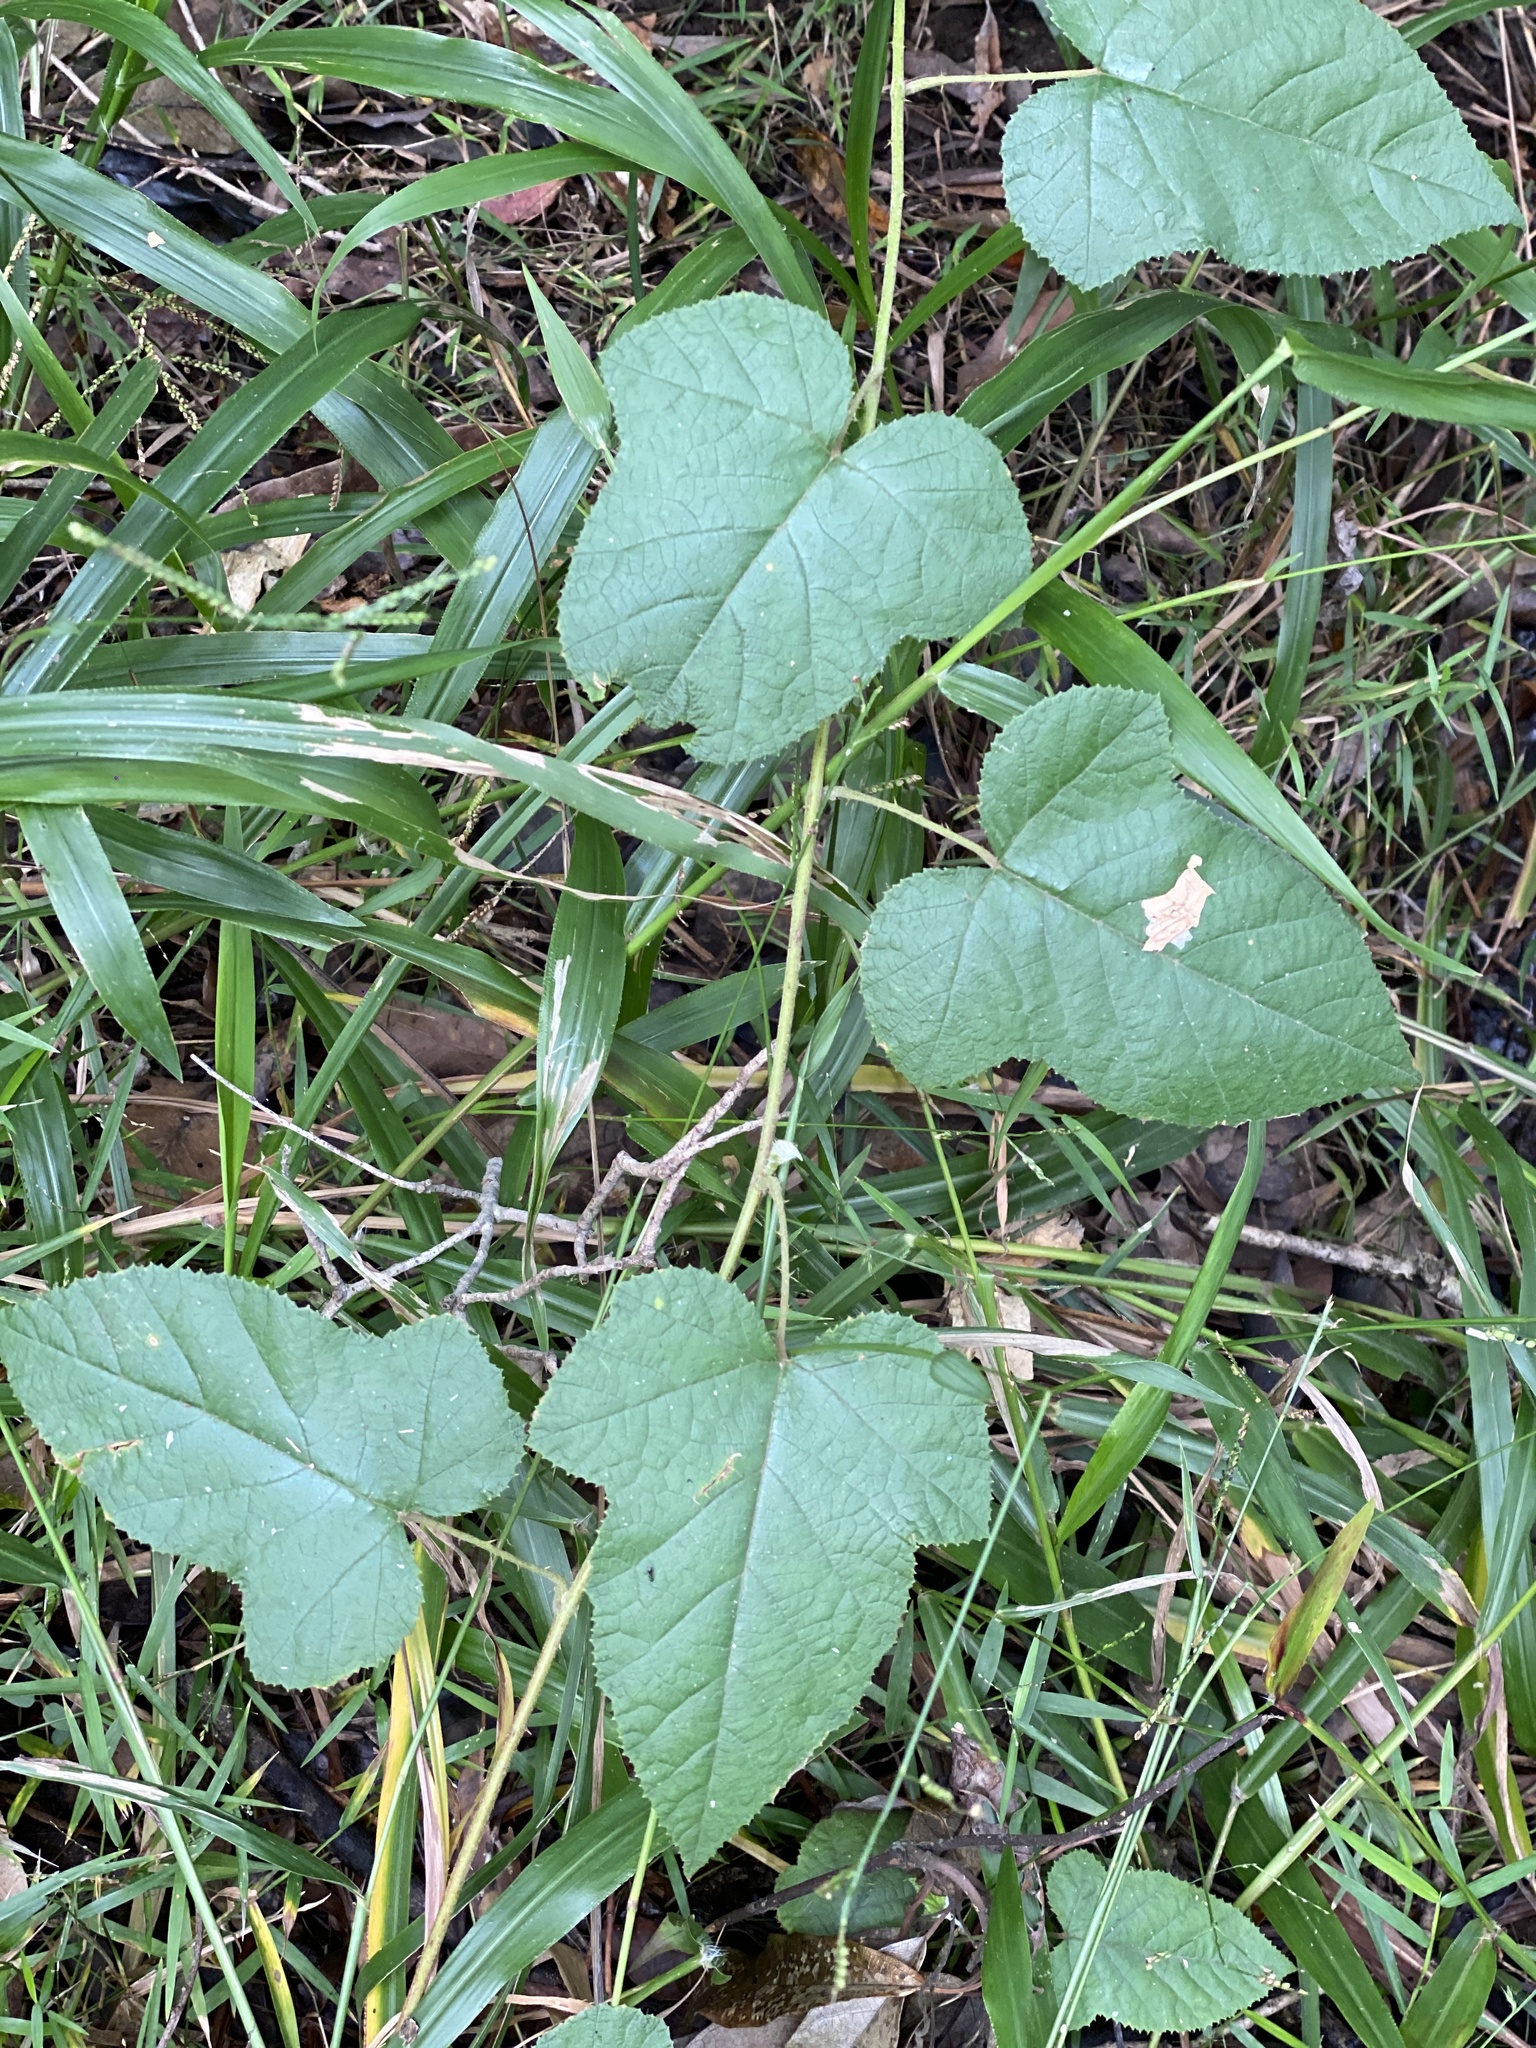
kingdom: Plantae
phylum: Tracheophyta
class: Magnoliopsida
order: Rosales
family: Rosaceae
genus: Rubus
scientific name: Rubus moluccanus
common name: Wild raspberry
